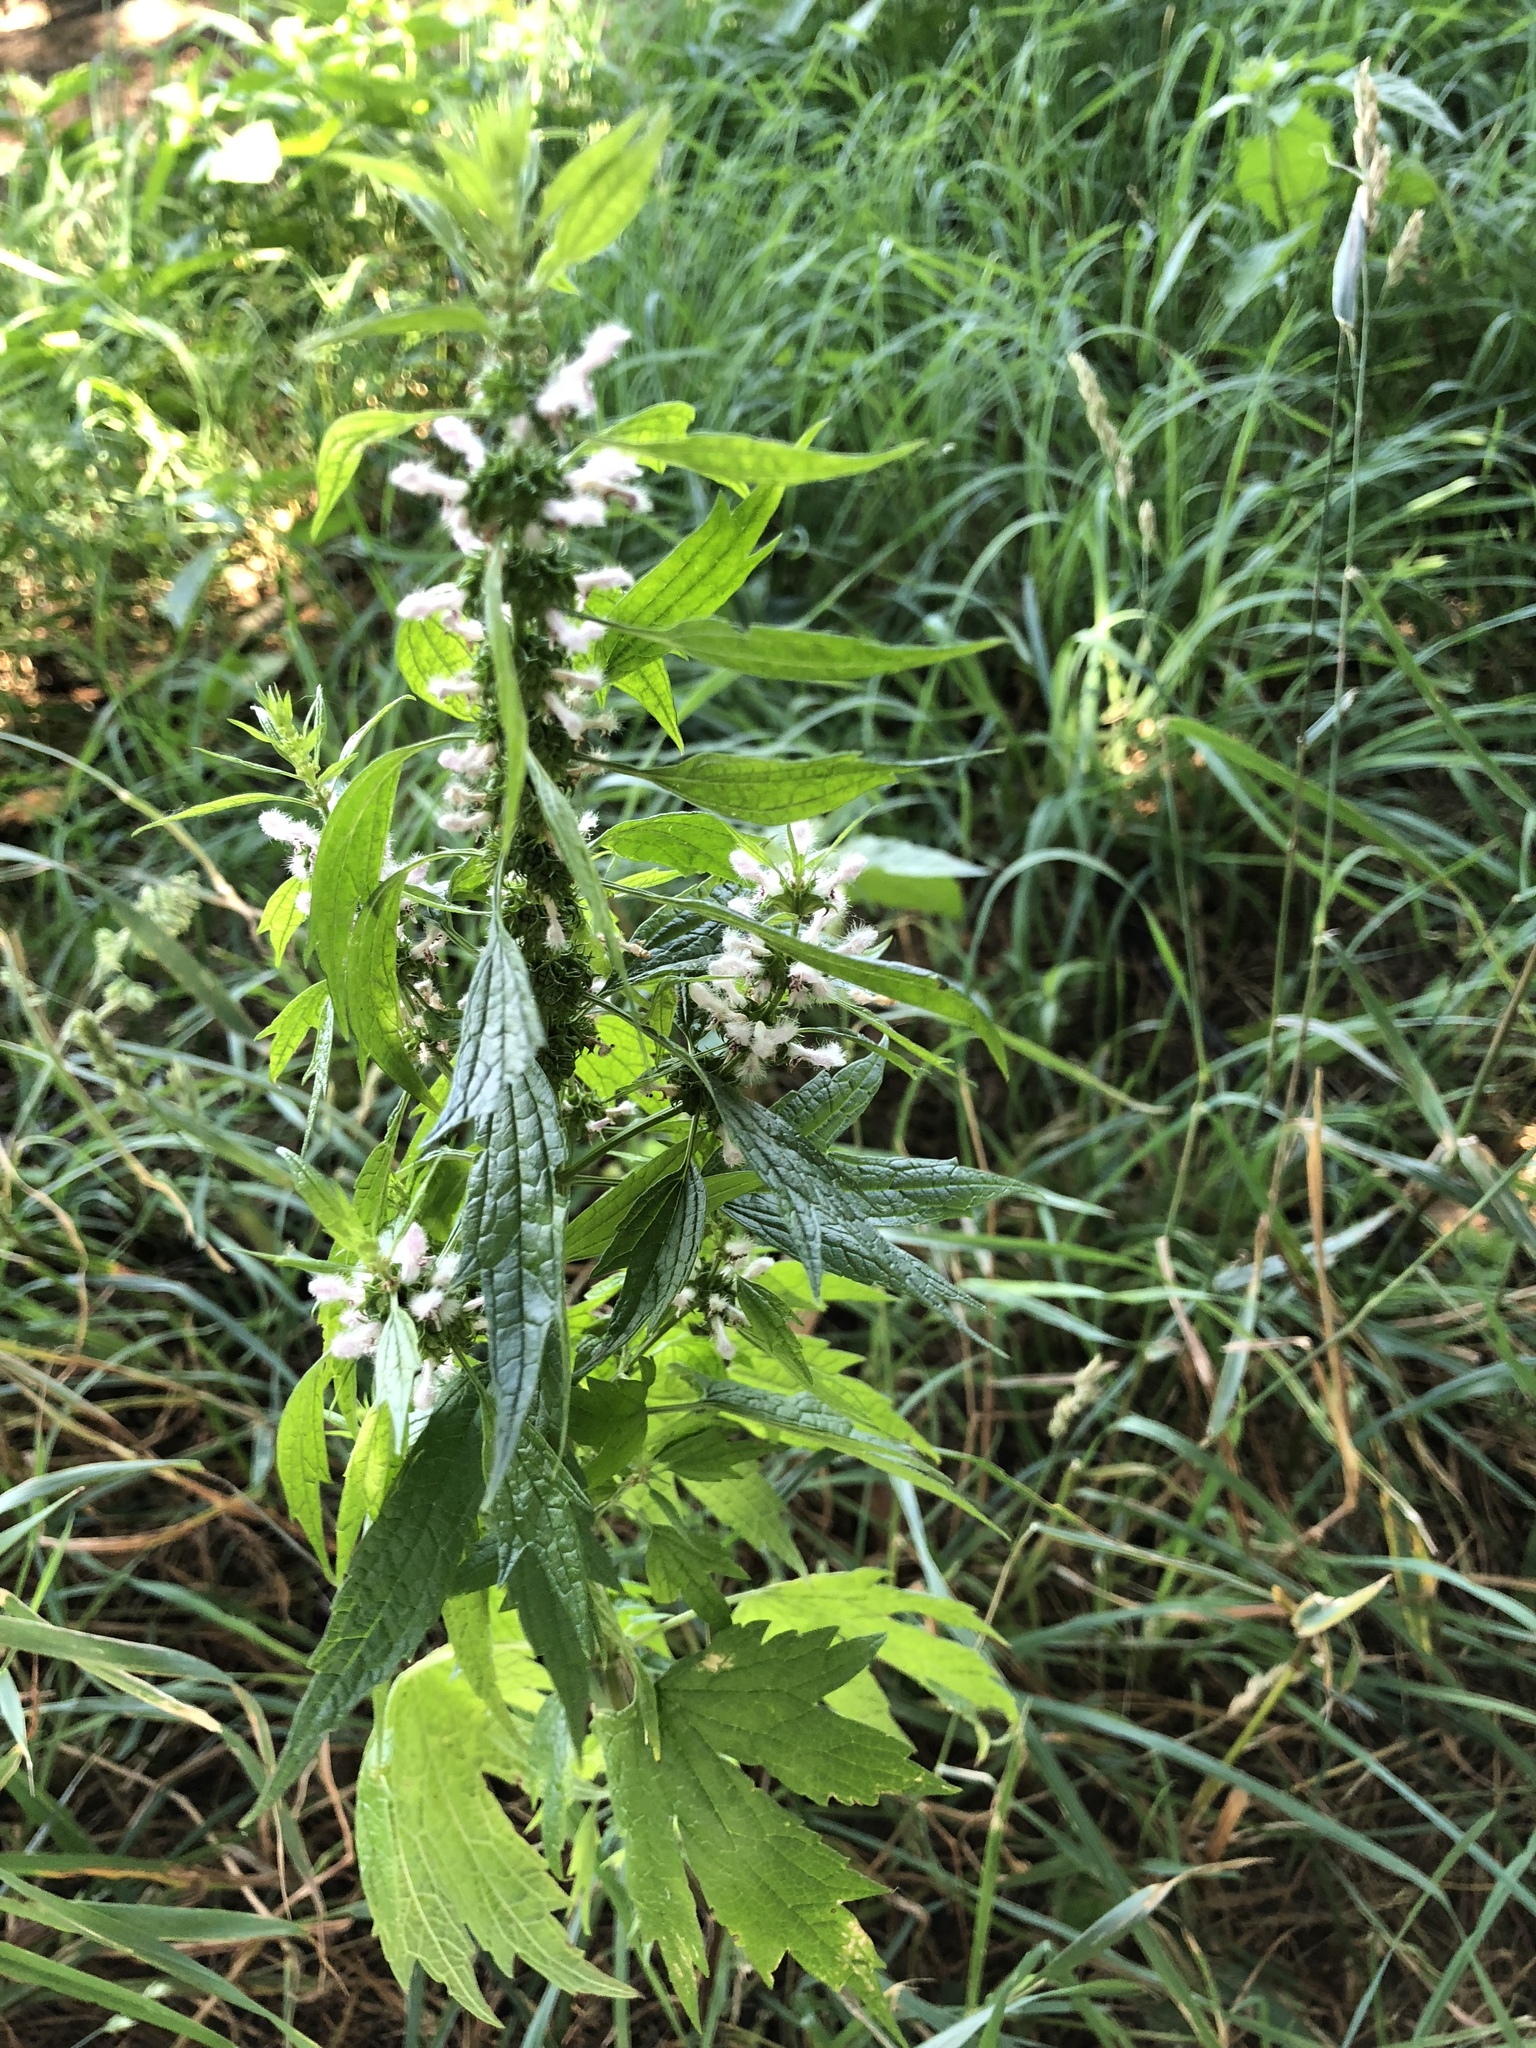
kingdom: Plantae
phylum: Tracheophyta
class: Magnoliopsida
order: Lamiales
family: Lamiaceae
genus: Leonurus
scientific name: Leonurus cardiaca
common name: Motherwort
